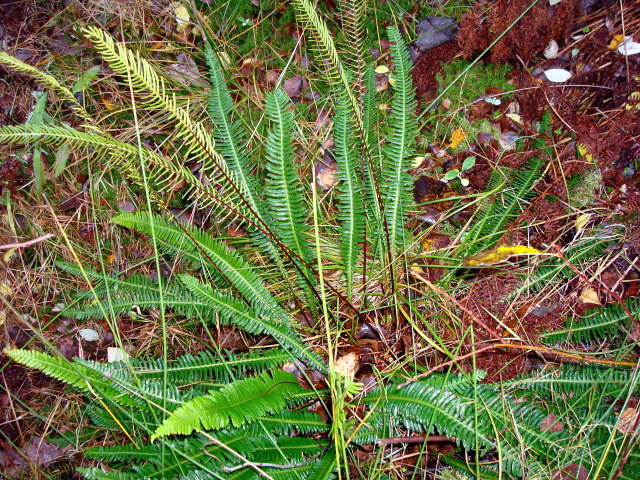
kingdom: Plantae
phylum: Tracheophyta
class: Polypodiopsida
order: Polypodiales
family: Blechnaceae
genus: Struthiopteris
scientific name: Struthiopteris spicant
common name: Deer fern
